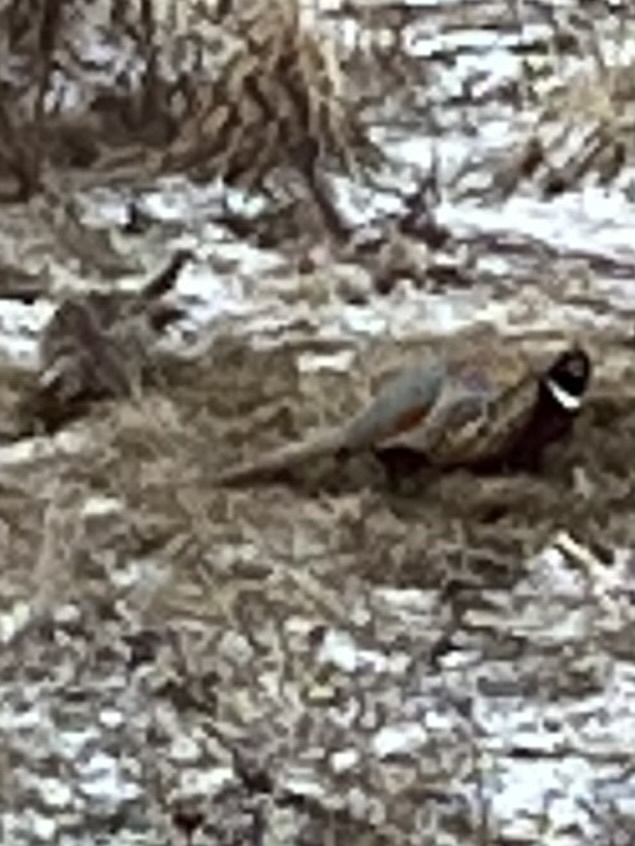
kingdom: Animalia
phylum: Chordata
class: Aves
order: Galliformes
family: Phasianidae
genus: Phasianus
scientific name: Phasianus colchicus
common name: Common pheasant
